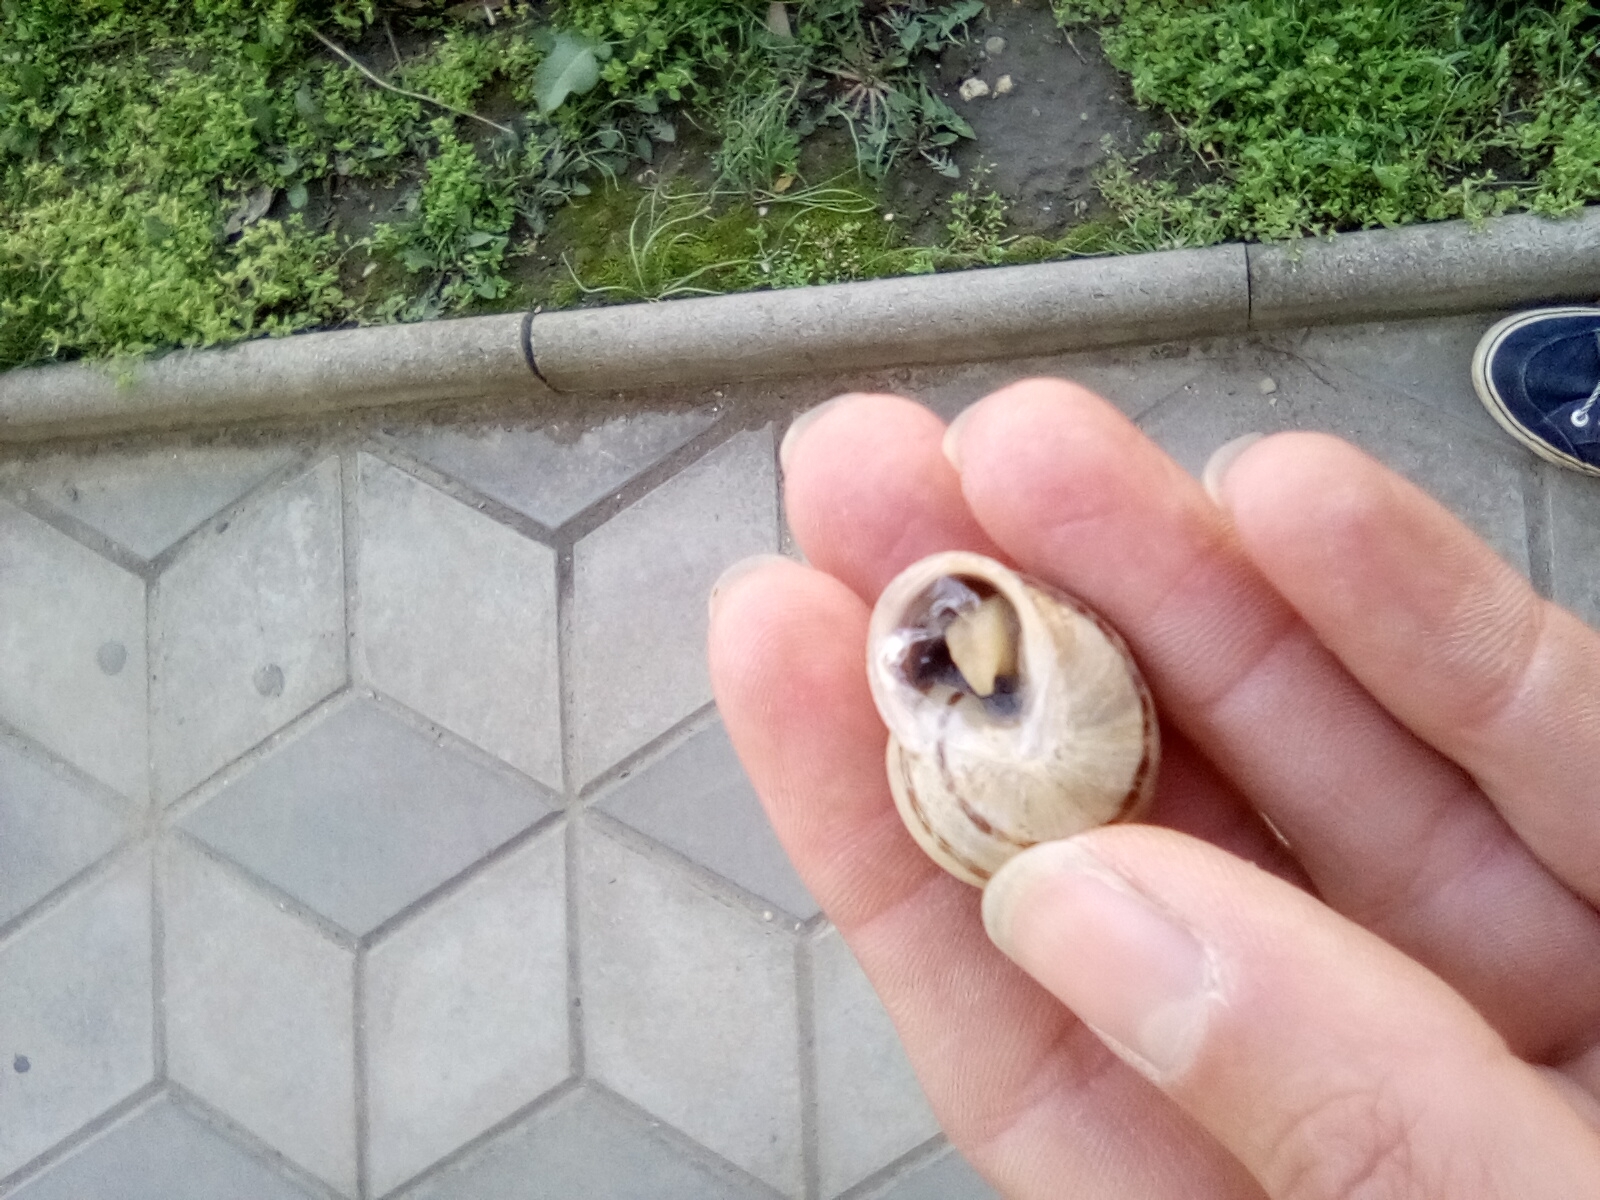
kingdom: Animalia
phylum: Mollusca
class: Gastropoda
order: Stylommatophora
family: Helicidae
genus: Eobania
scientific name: Eobania vermiculata
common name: Chocolateband snail
